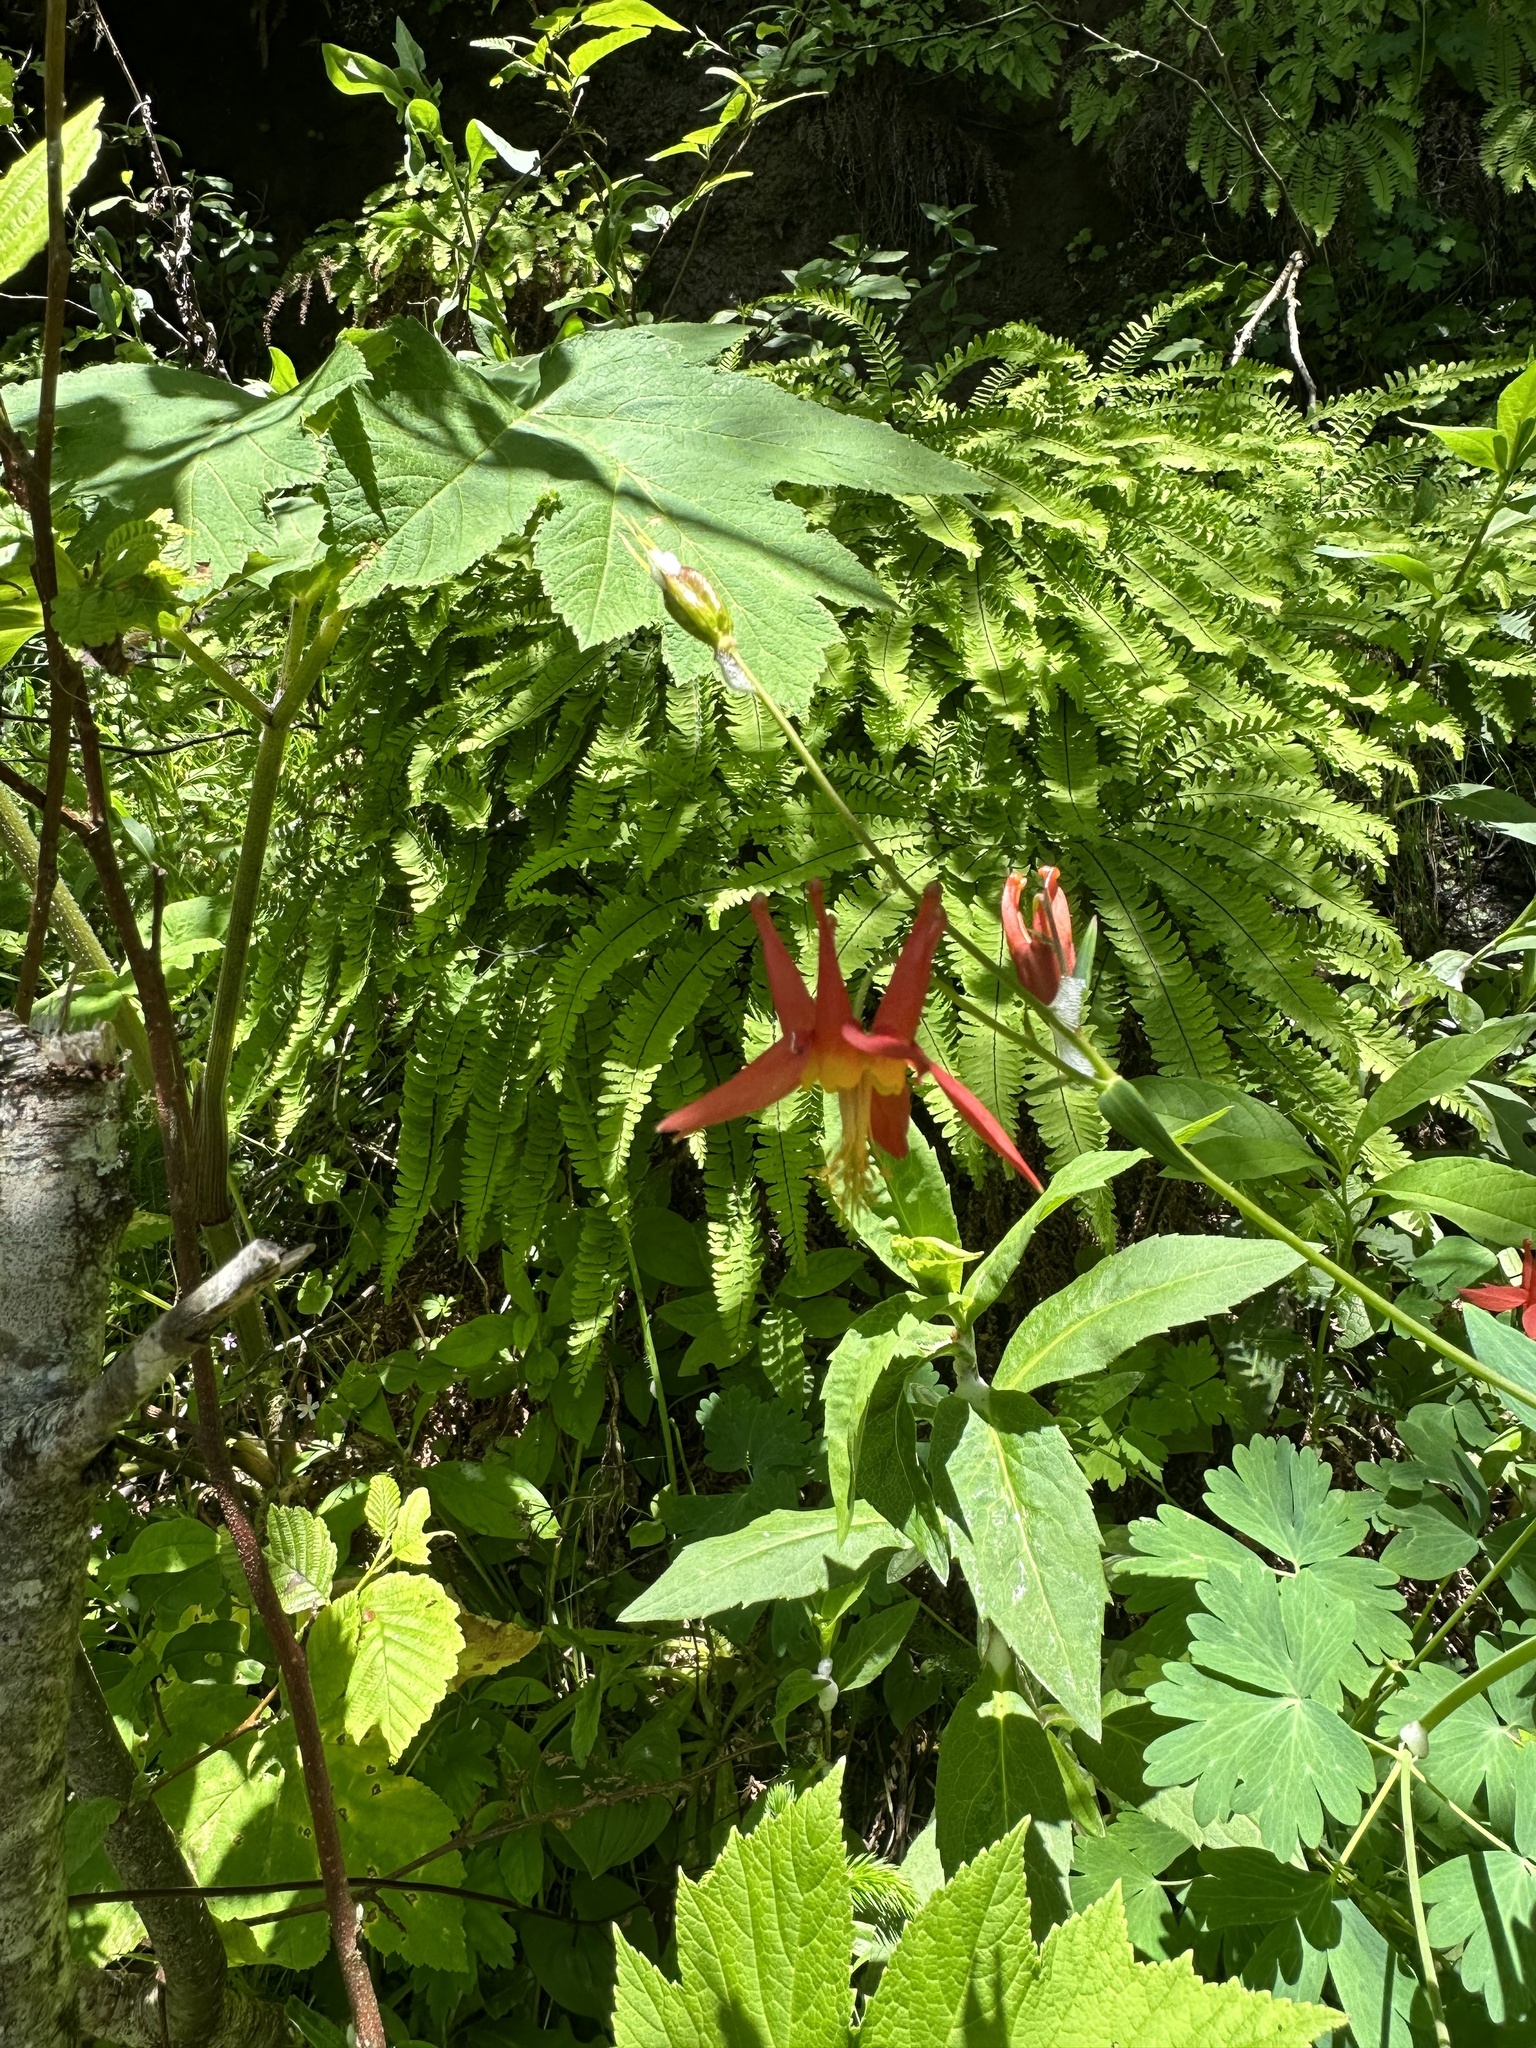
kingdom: Plantae
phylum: Tracheophyta
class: Magnoliopsida
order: Ranunculales
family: Ranunculaceae
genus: Aquilegia
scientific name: Aquilegia formosa
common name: Sitka columbine
